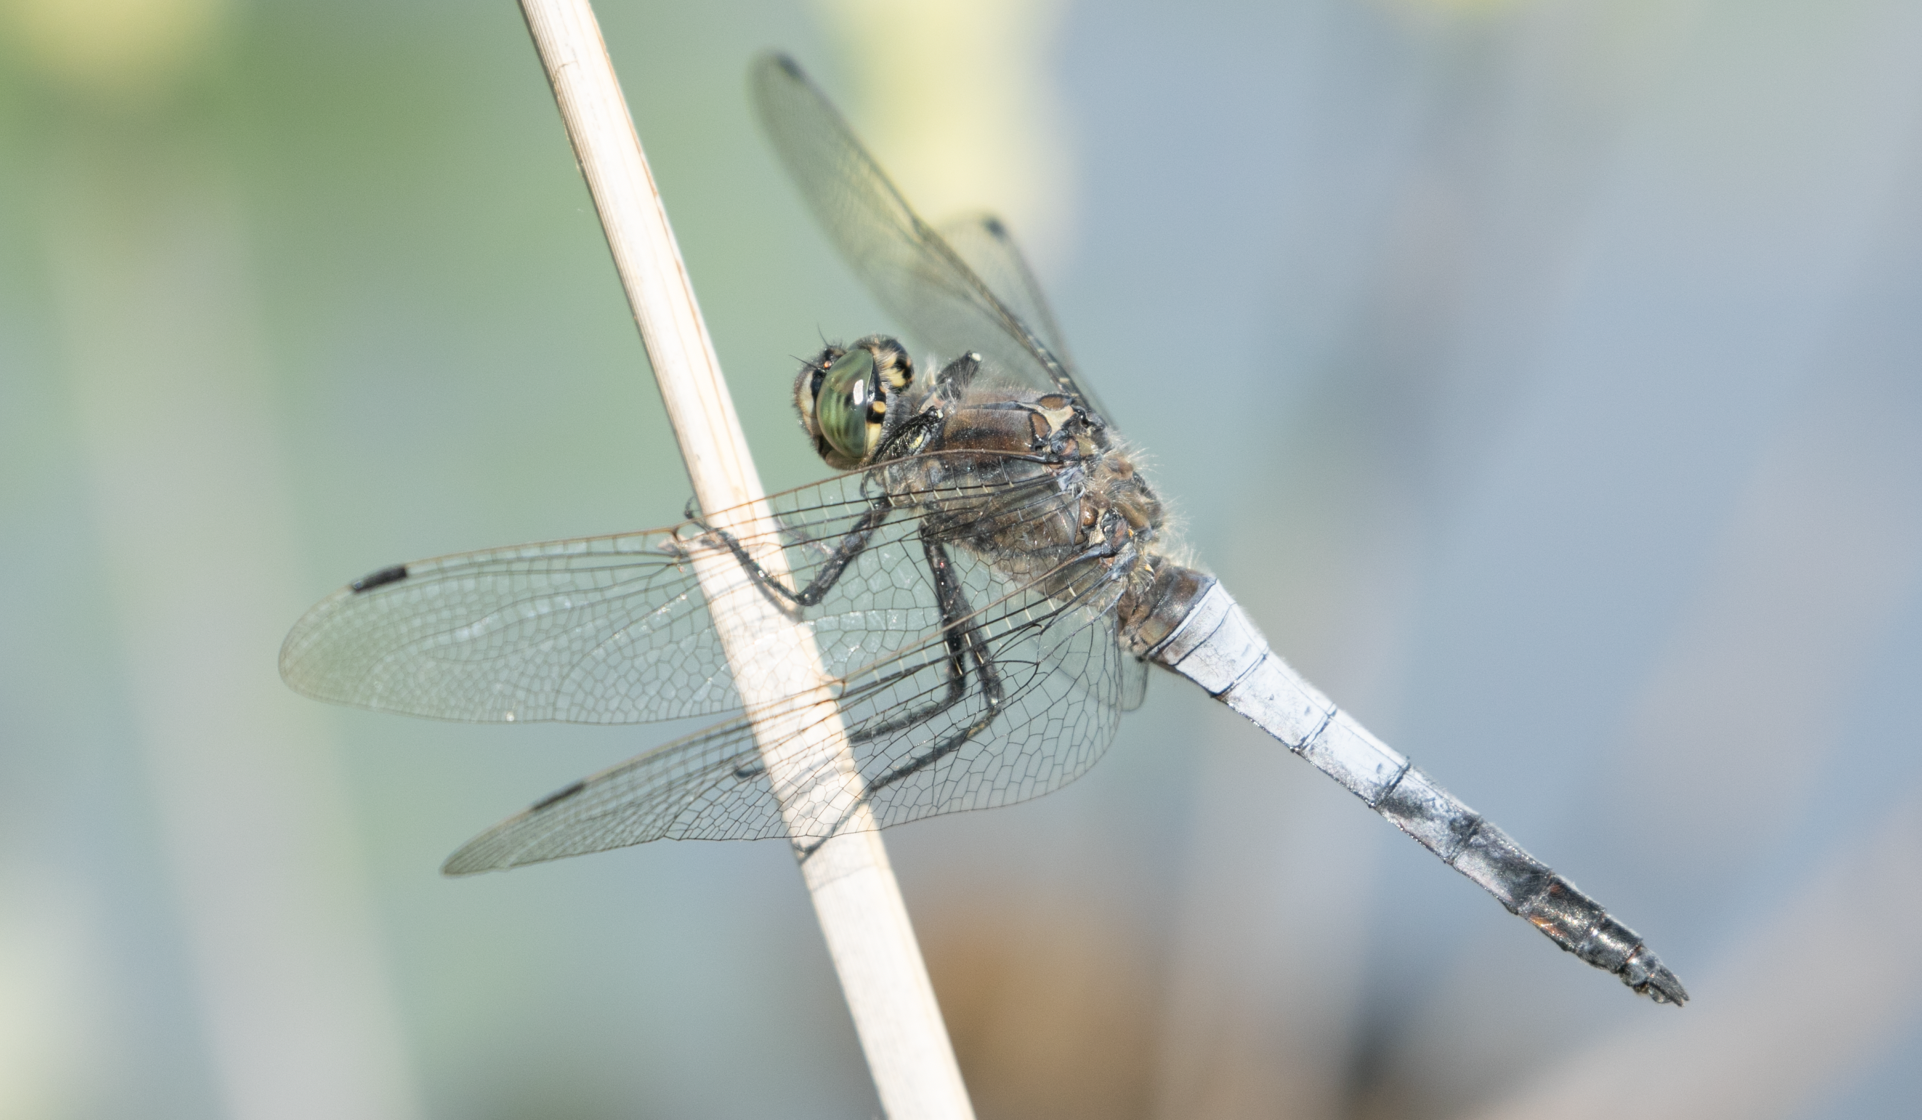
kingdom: Animalia
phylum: Arthropoda
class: Insecta
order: Odonata
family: Libellulidae
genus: Orthetrum
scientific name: Orthetrum cancellatum
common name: Black-tailed skimmer
